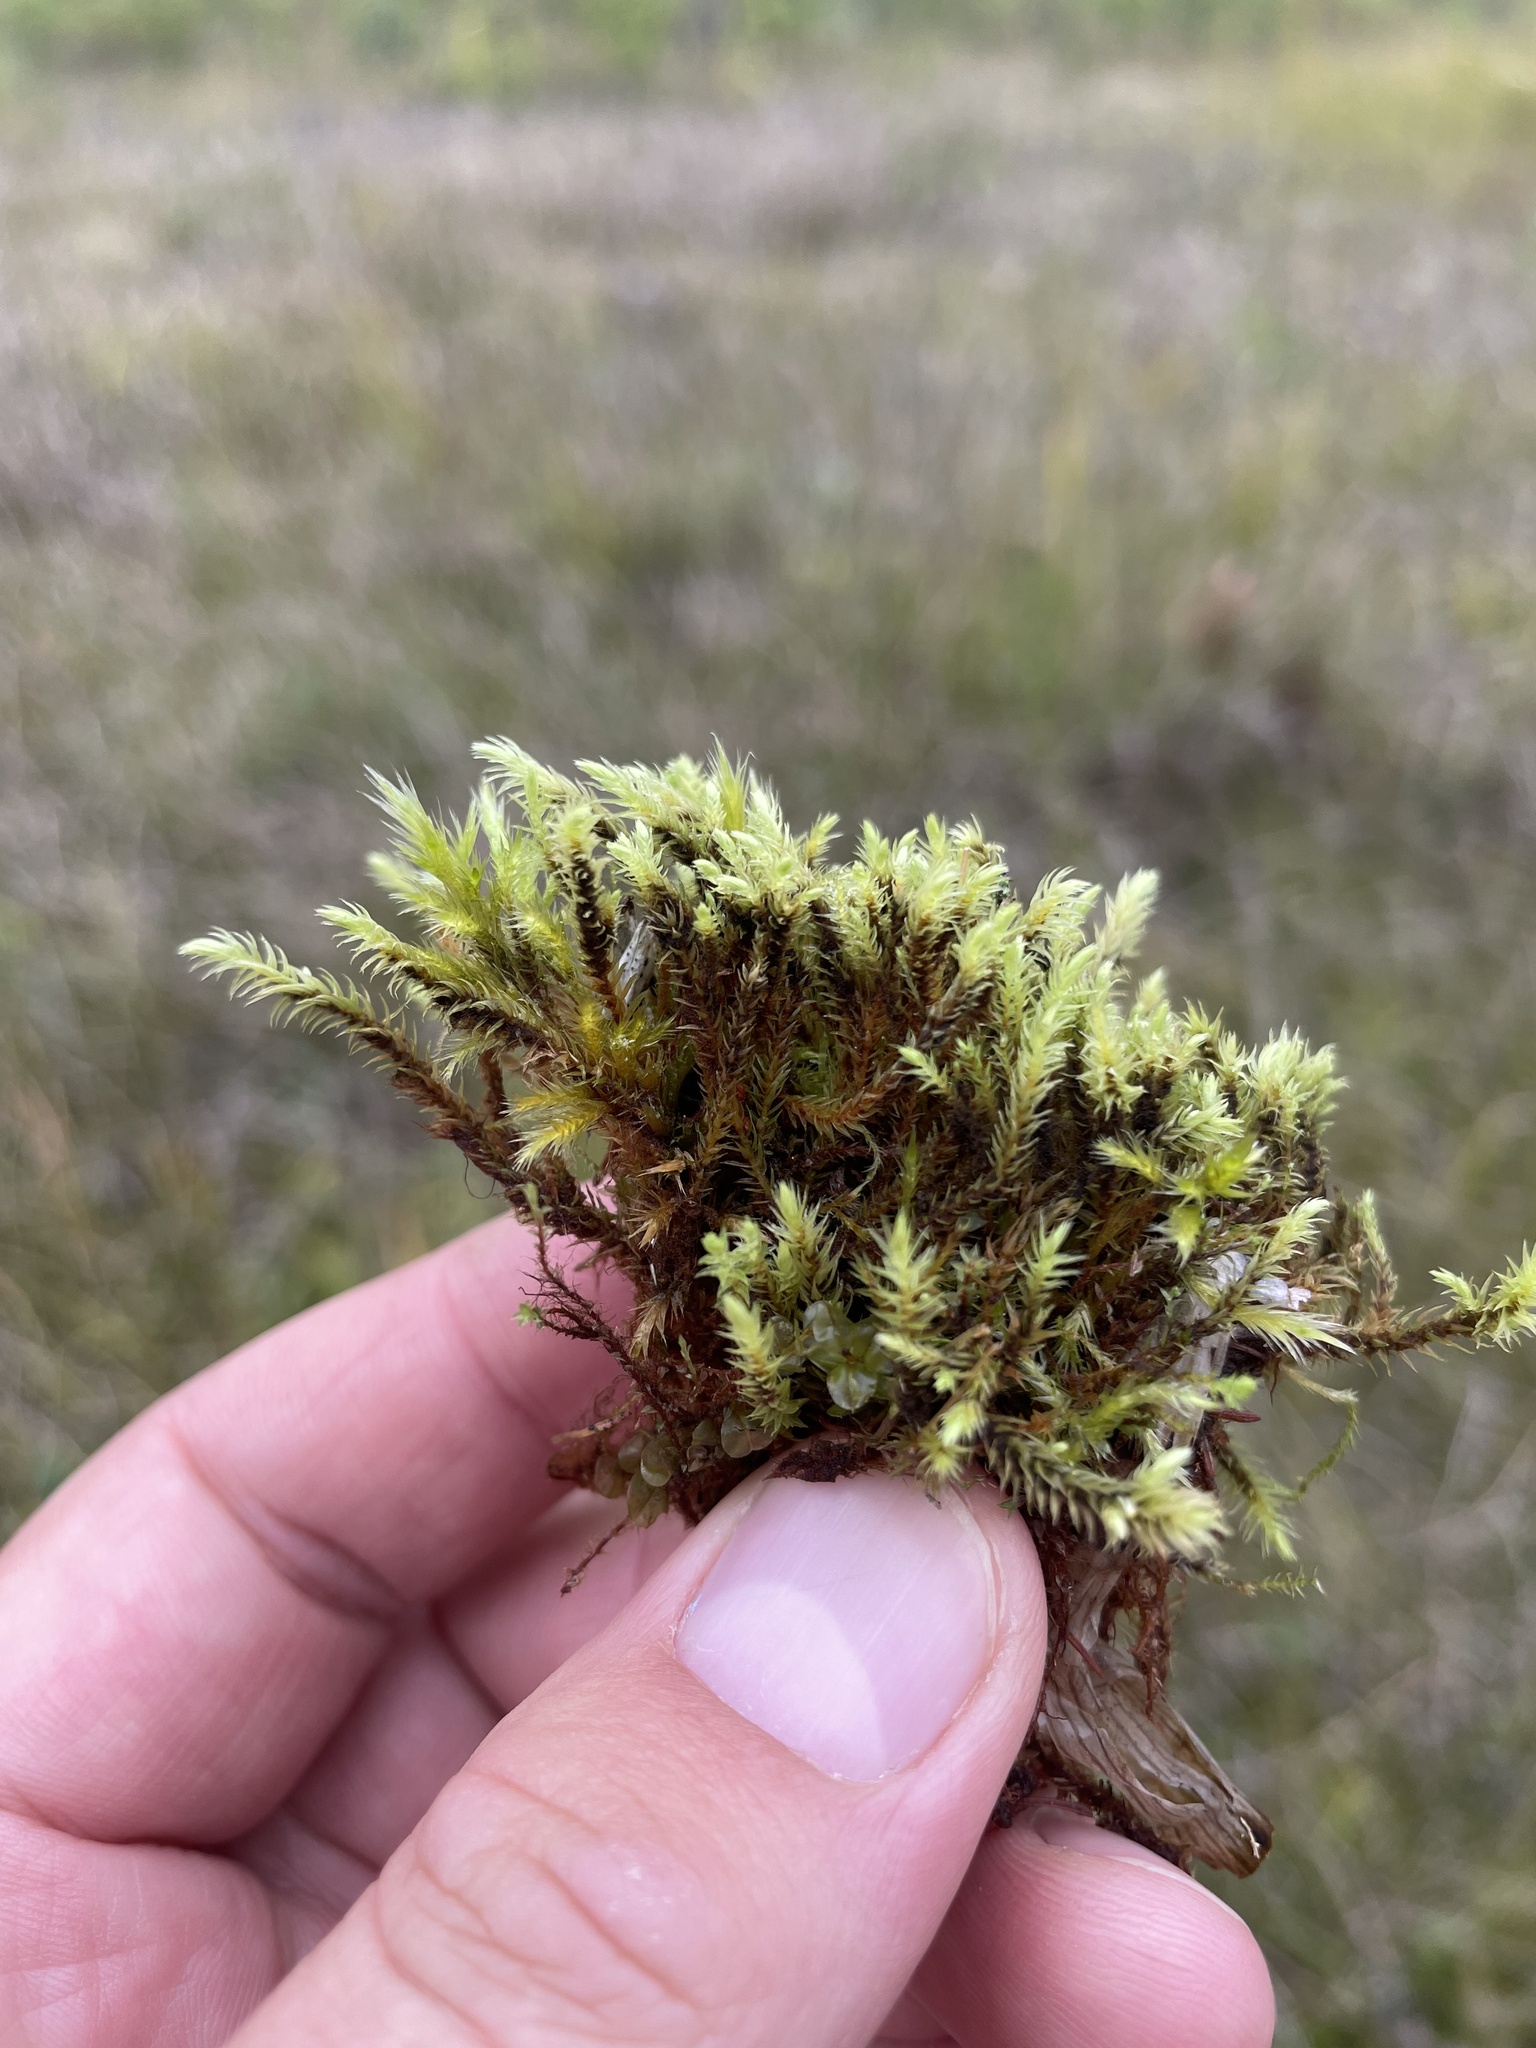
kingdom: Plantae
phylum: Bryophyta
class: Bryopsida
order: Aulacomniales
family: Aulacomniaceae
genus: Aulacomnium
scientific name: Aulacomnium palustre
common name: Bog groove-moss
